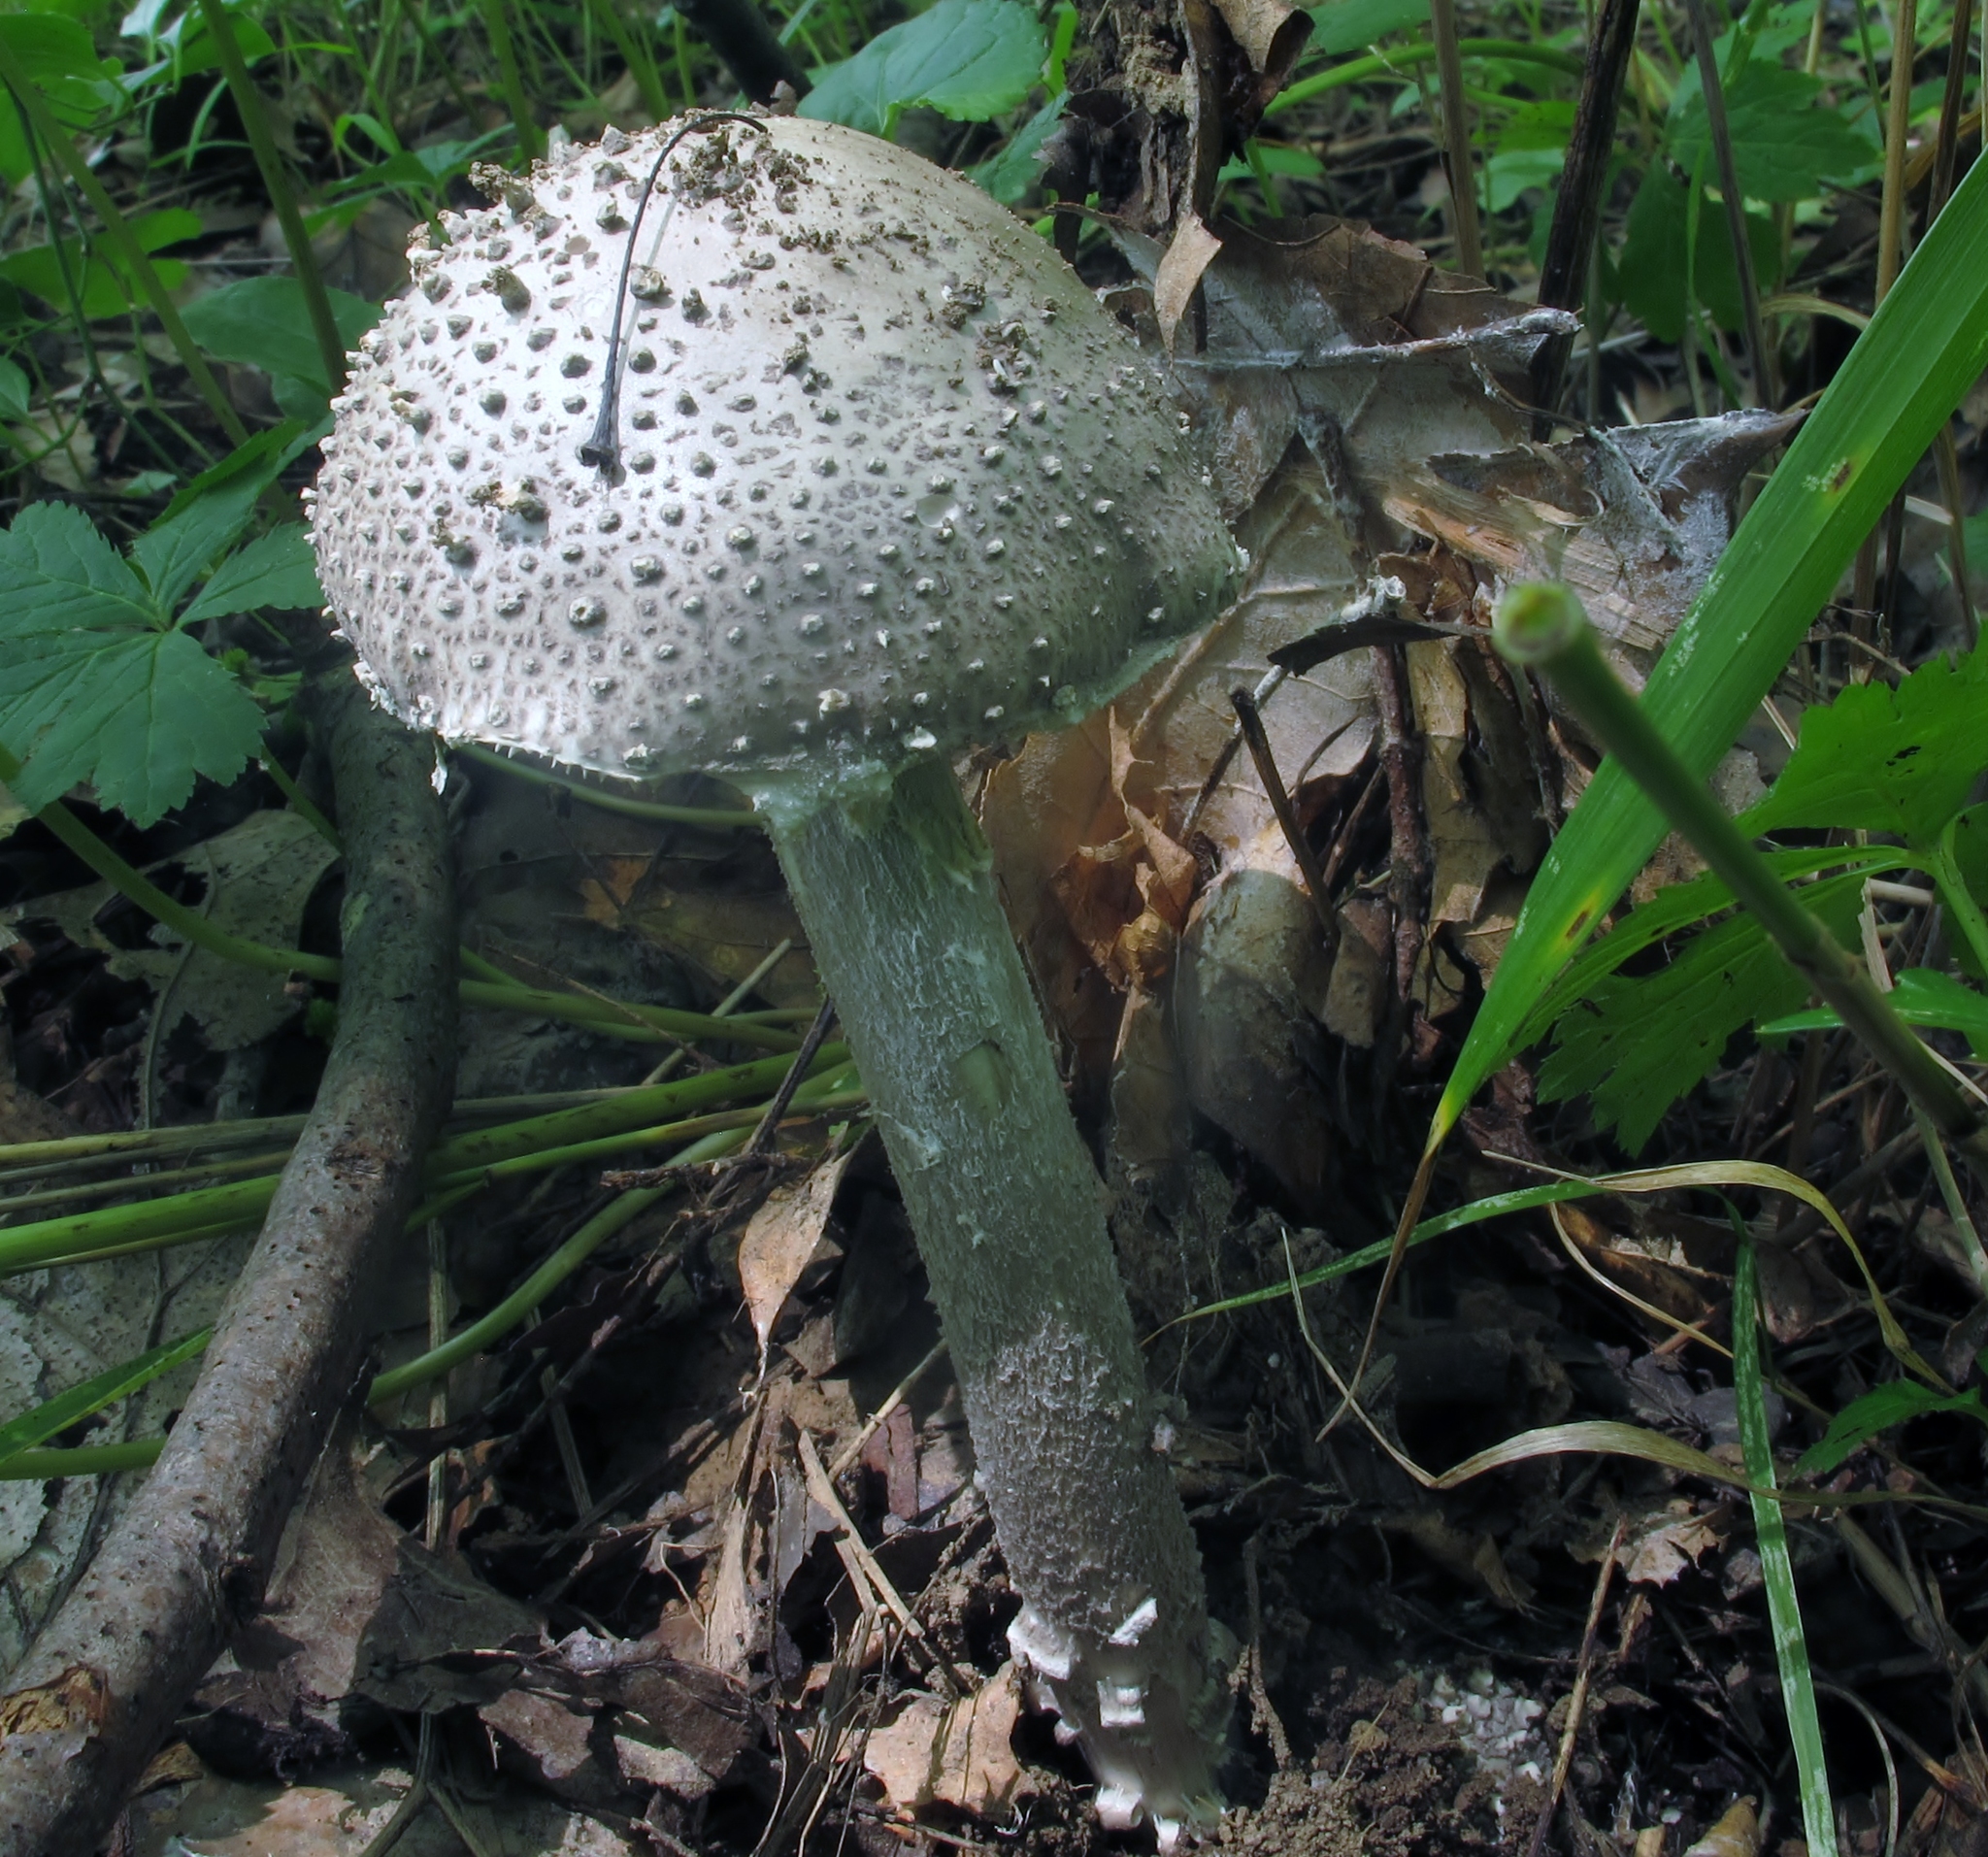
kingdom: Fungi
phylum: Basidiomycota
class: Agaricomycetes
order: Agaricales
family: Amanitaceae
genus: Amanita
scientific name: Amanita onusta
